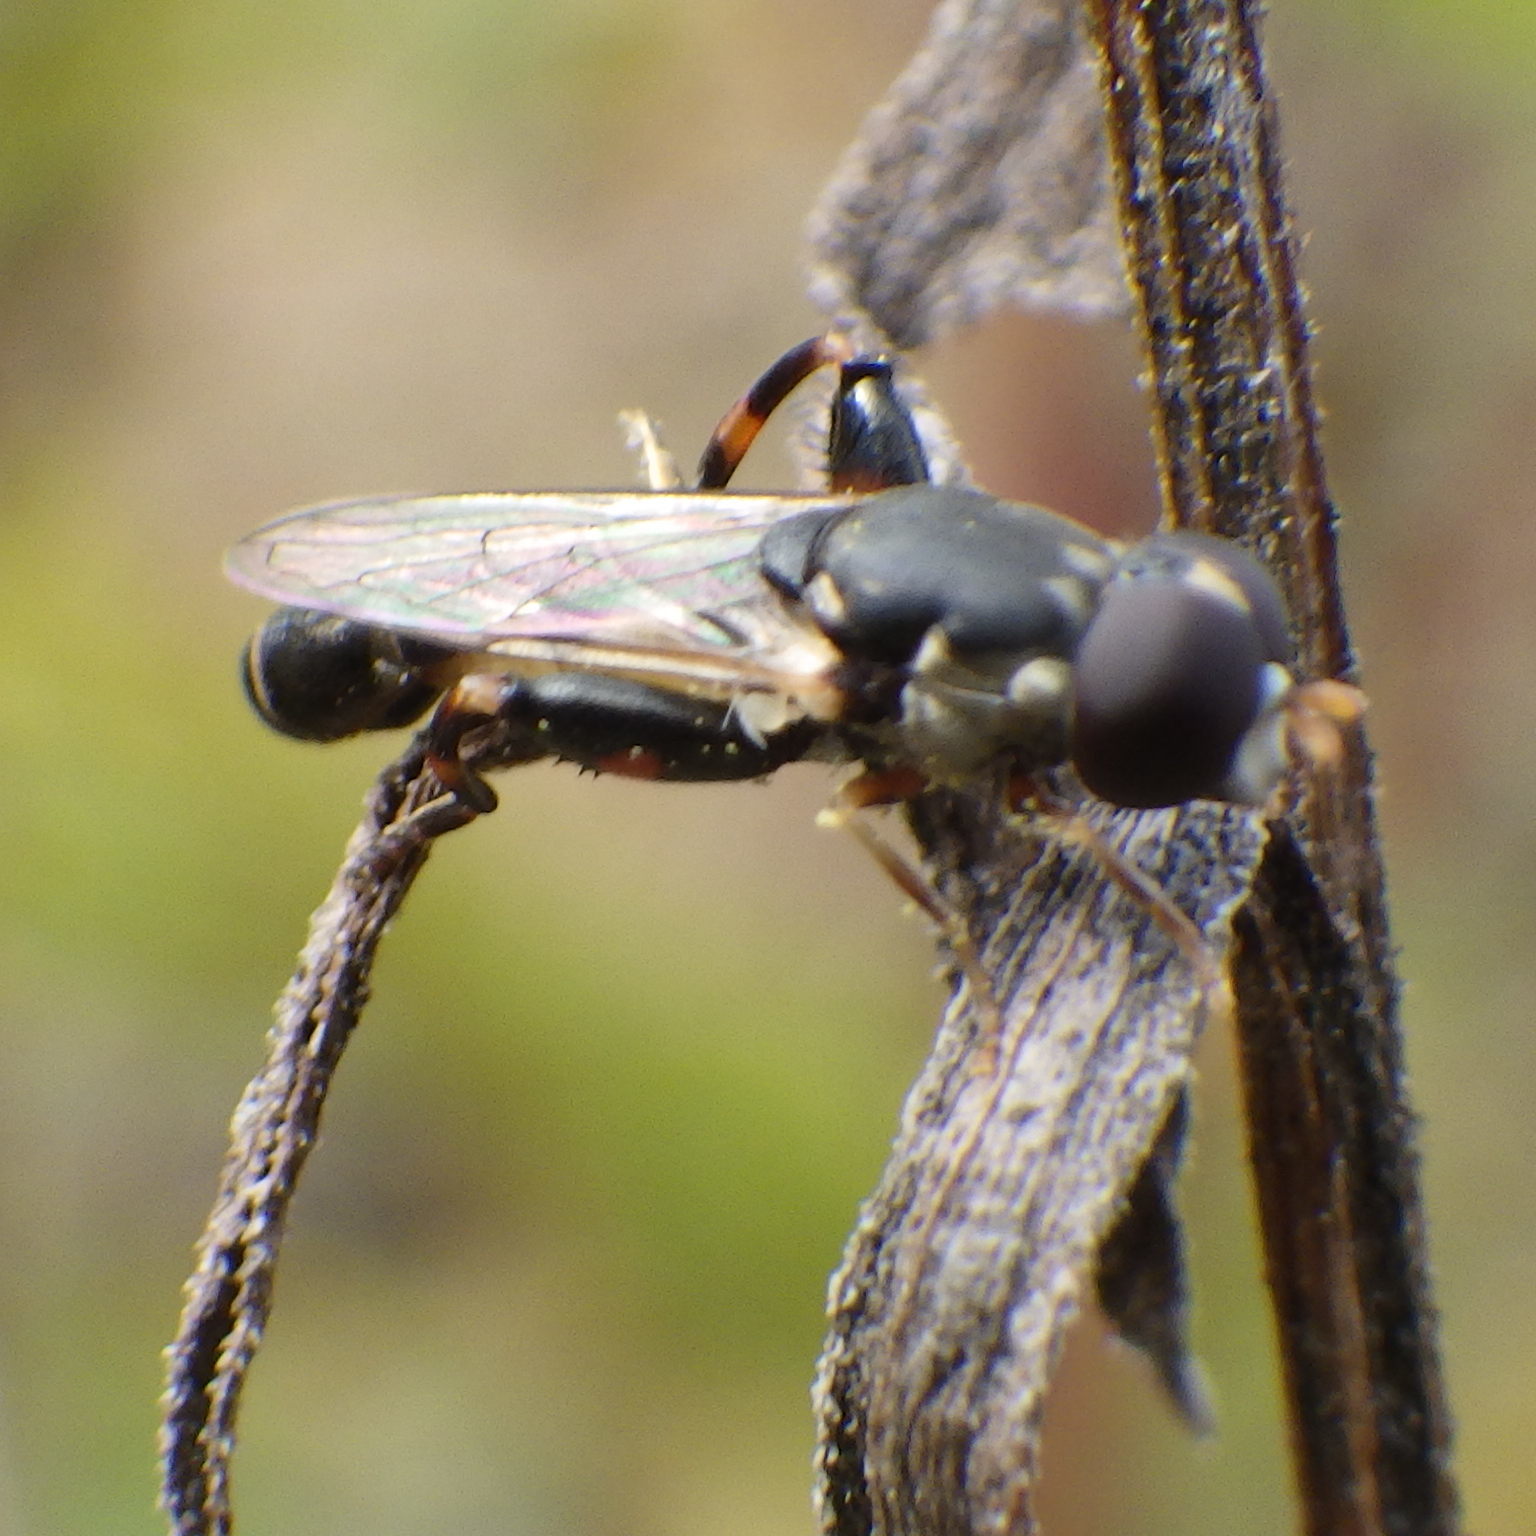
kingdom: Animalia
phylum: Arthropoda
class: Insecta
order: Diptera
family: Syrphidae
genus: Syritta
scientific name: Syritta pipiens
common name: Hover fly
